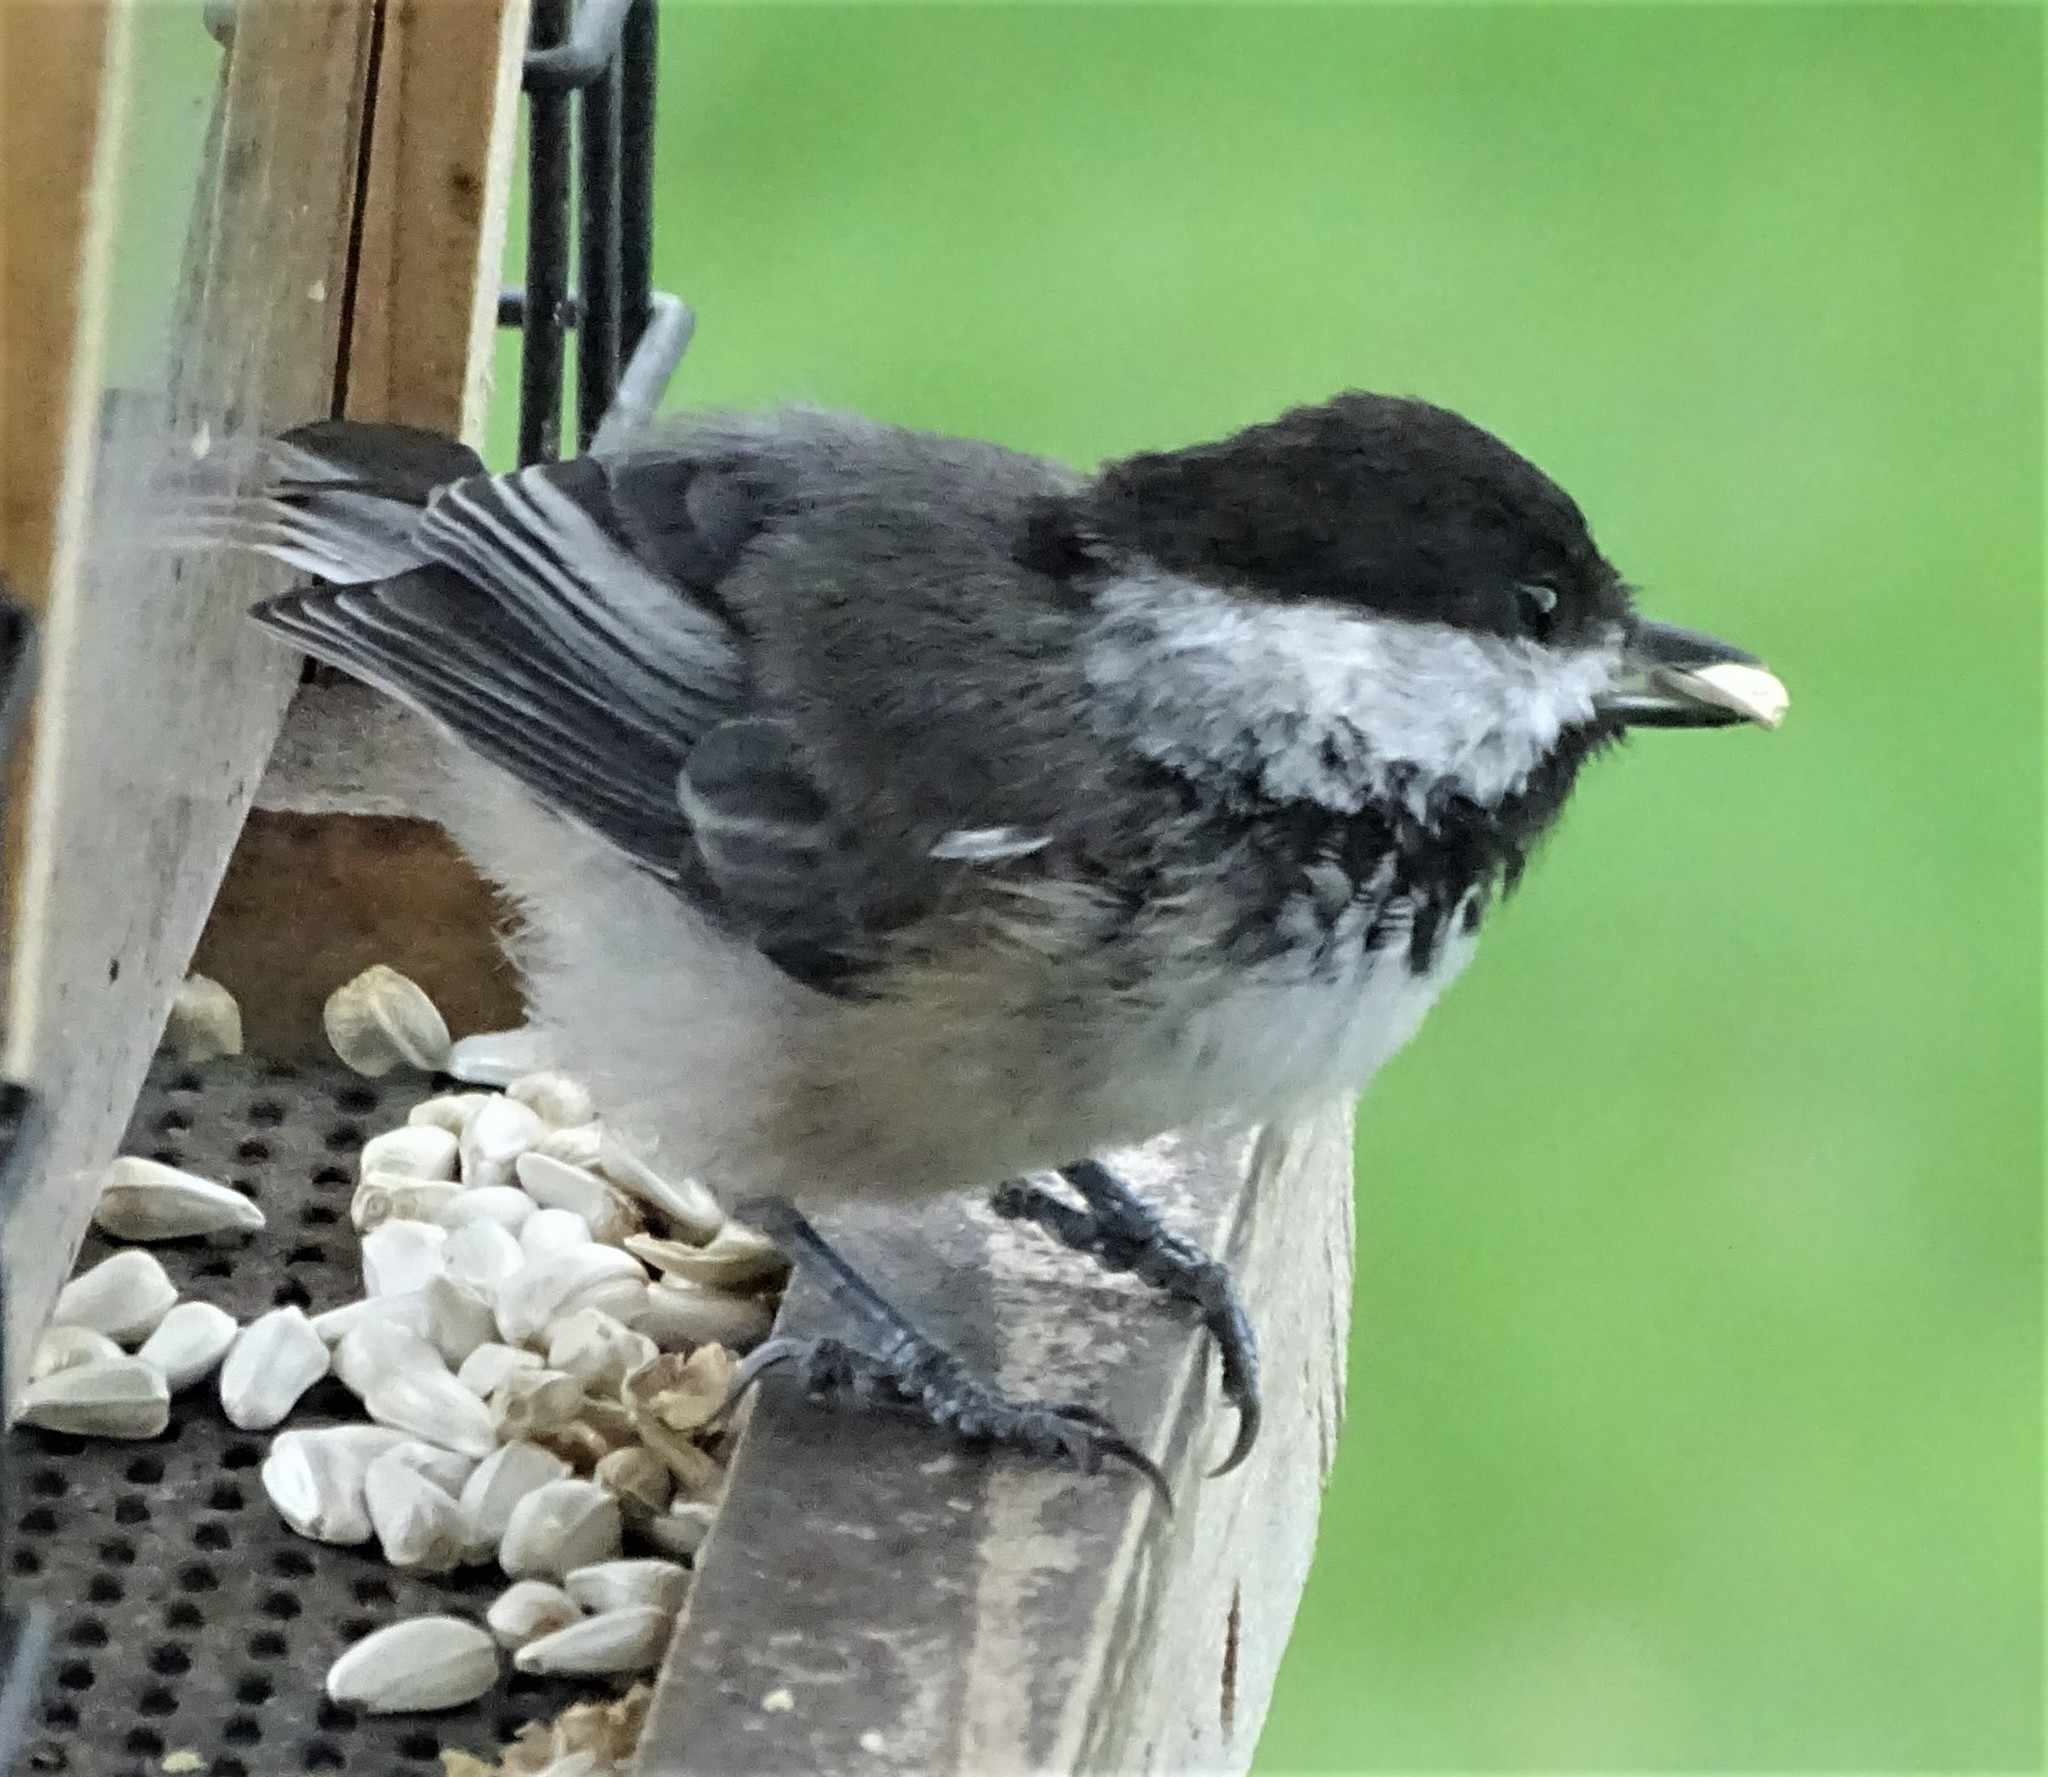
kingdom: Animalia
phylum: Chordata
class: Aves
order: Passeriformes
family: Paridae
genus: Poecile
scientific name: Poecile atricapillus
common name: Black-capped chickadee
